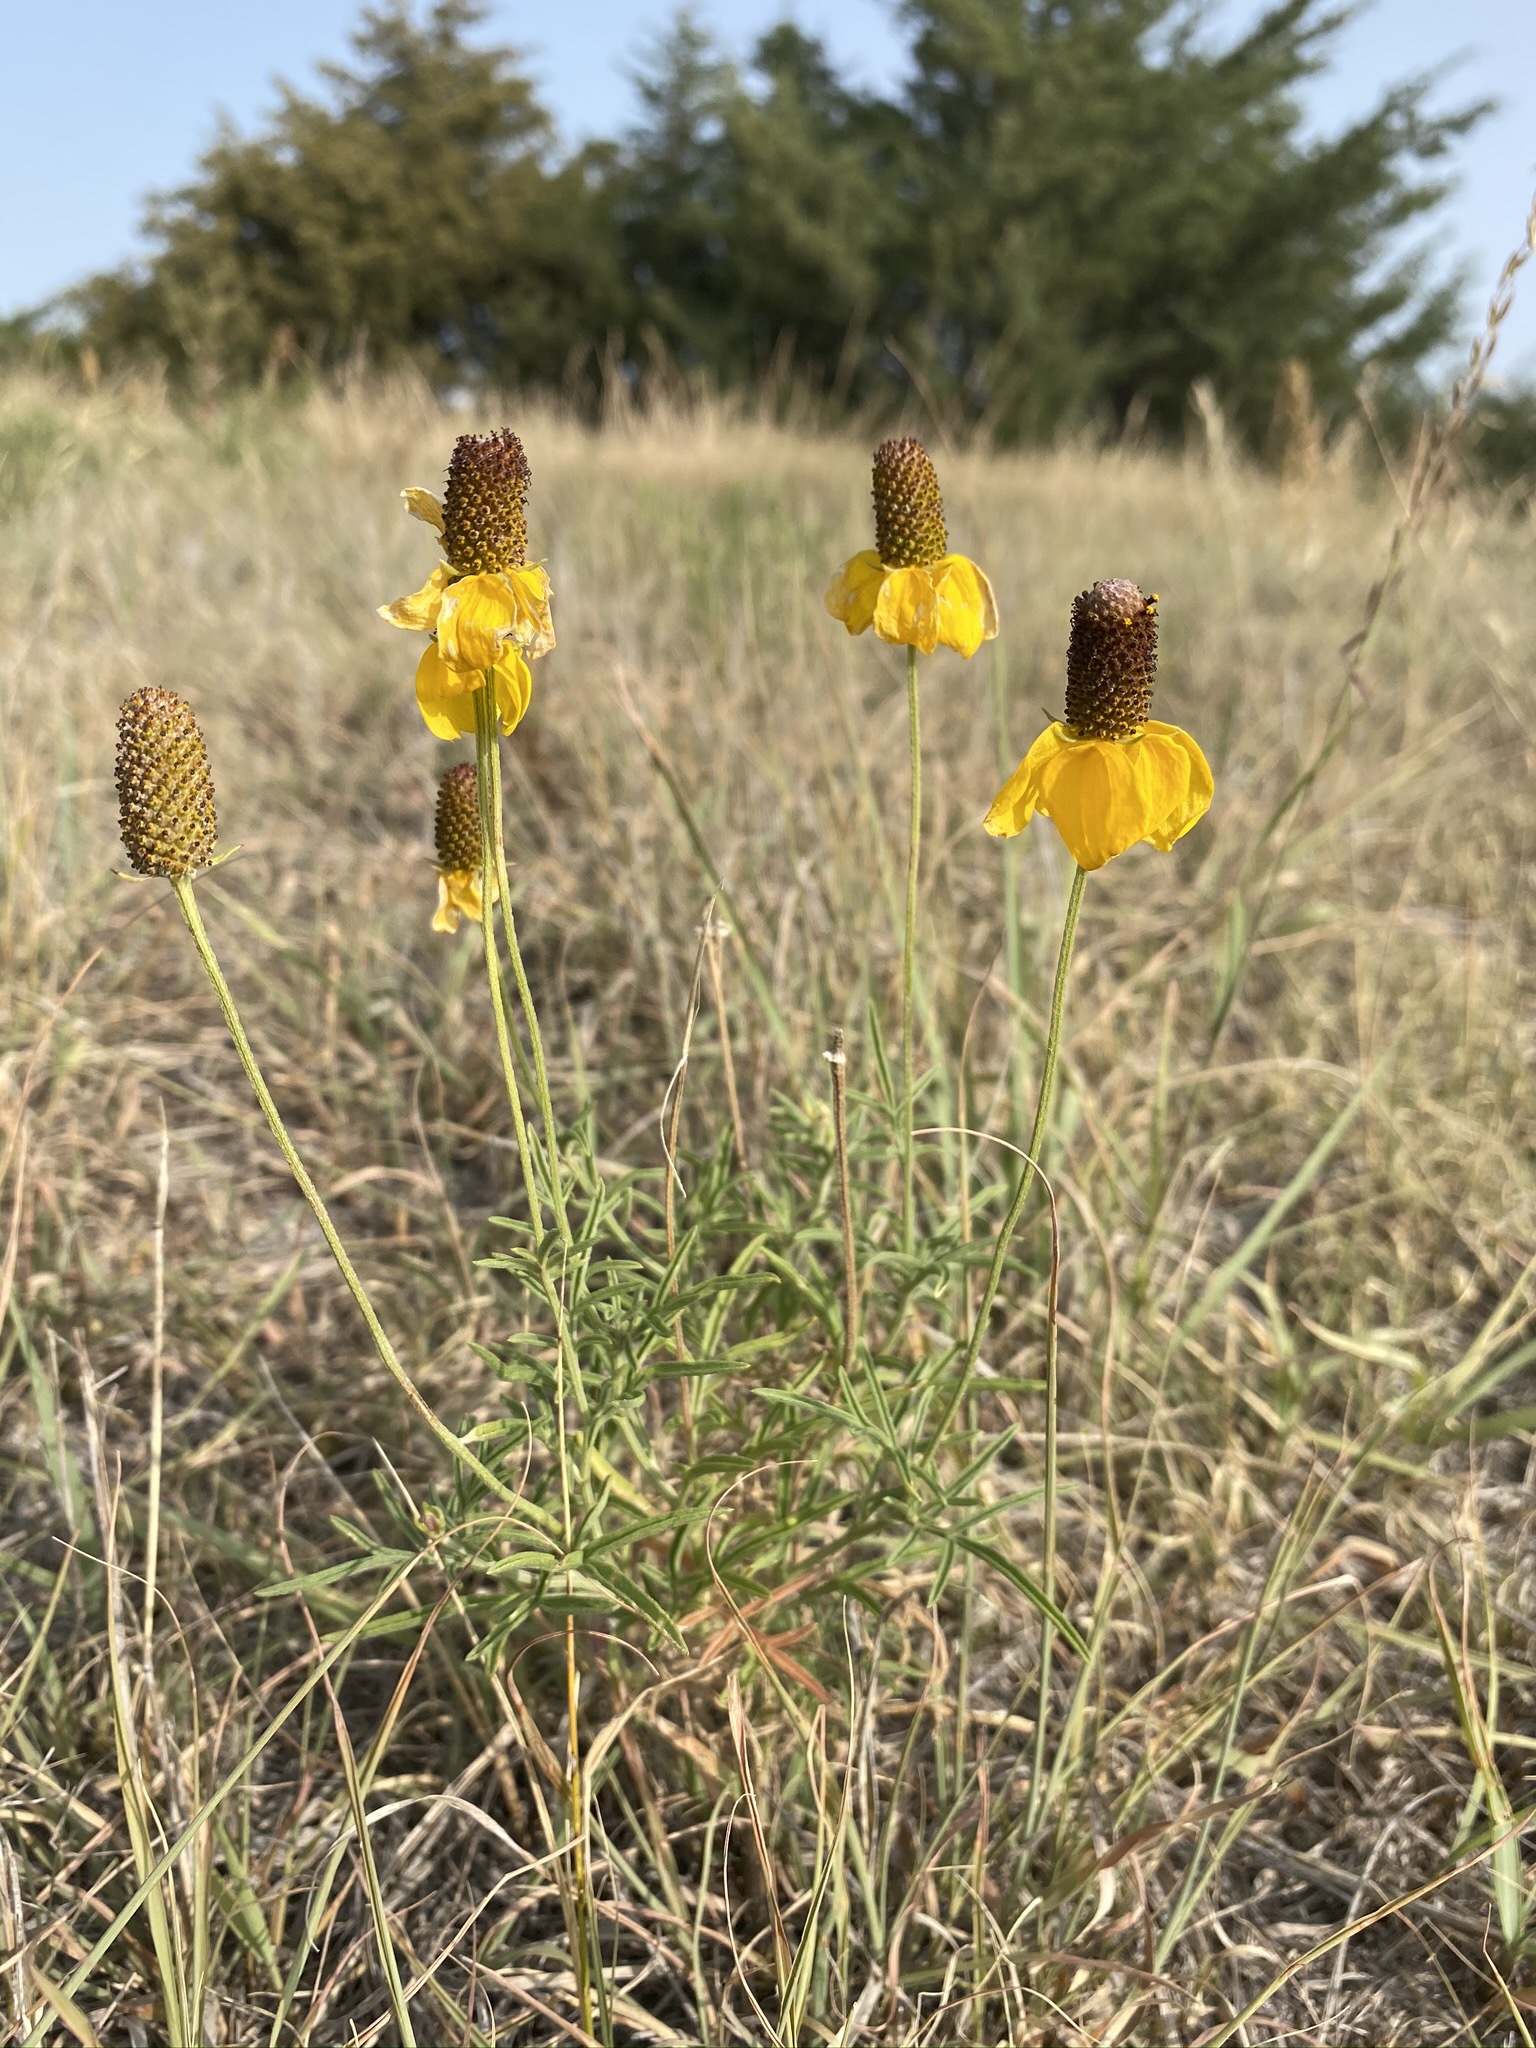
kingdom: Plantae
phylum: Tracheophyta
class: Magnoliopsida
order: Asterales
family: Asteraceae
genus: Ratibida
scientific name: Ratibida columnifera
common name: Prairie coneflower
